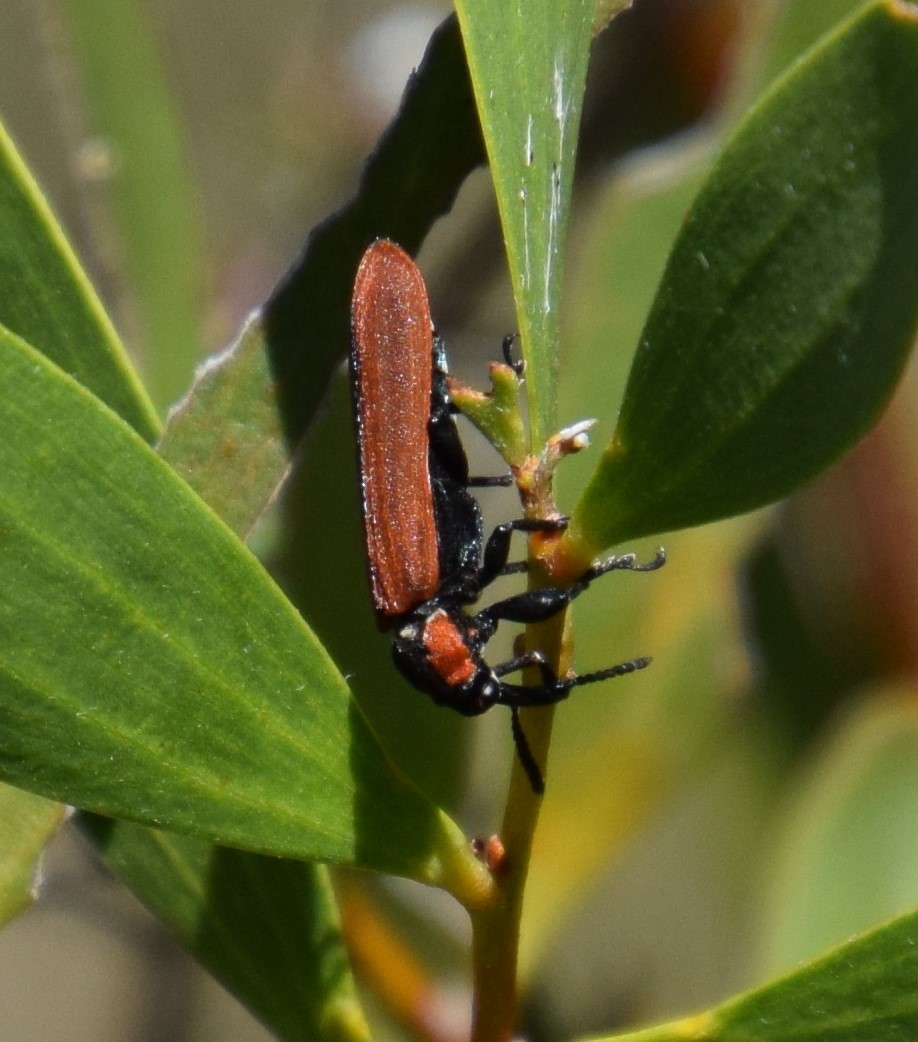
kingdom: Animalia
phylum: Arthropoda
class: Insecta
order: Coleoptera
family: Belidae
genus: Rhinotia
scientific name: Rhinotia haemoptera
